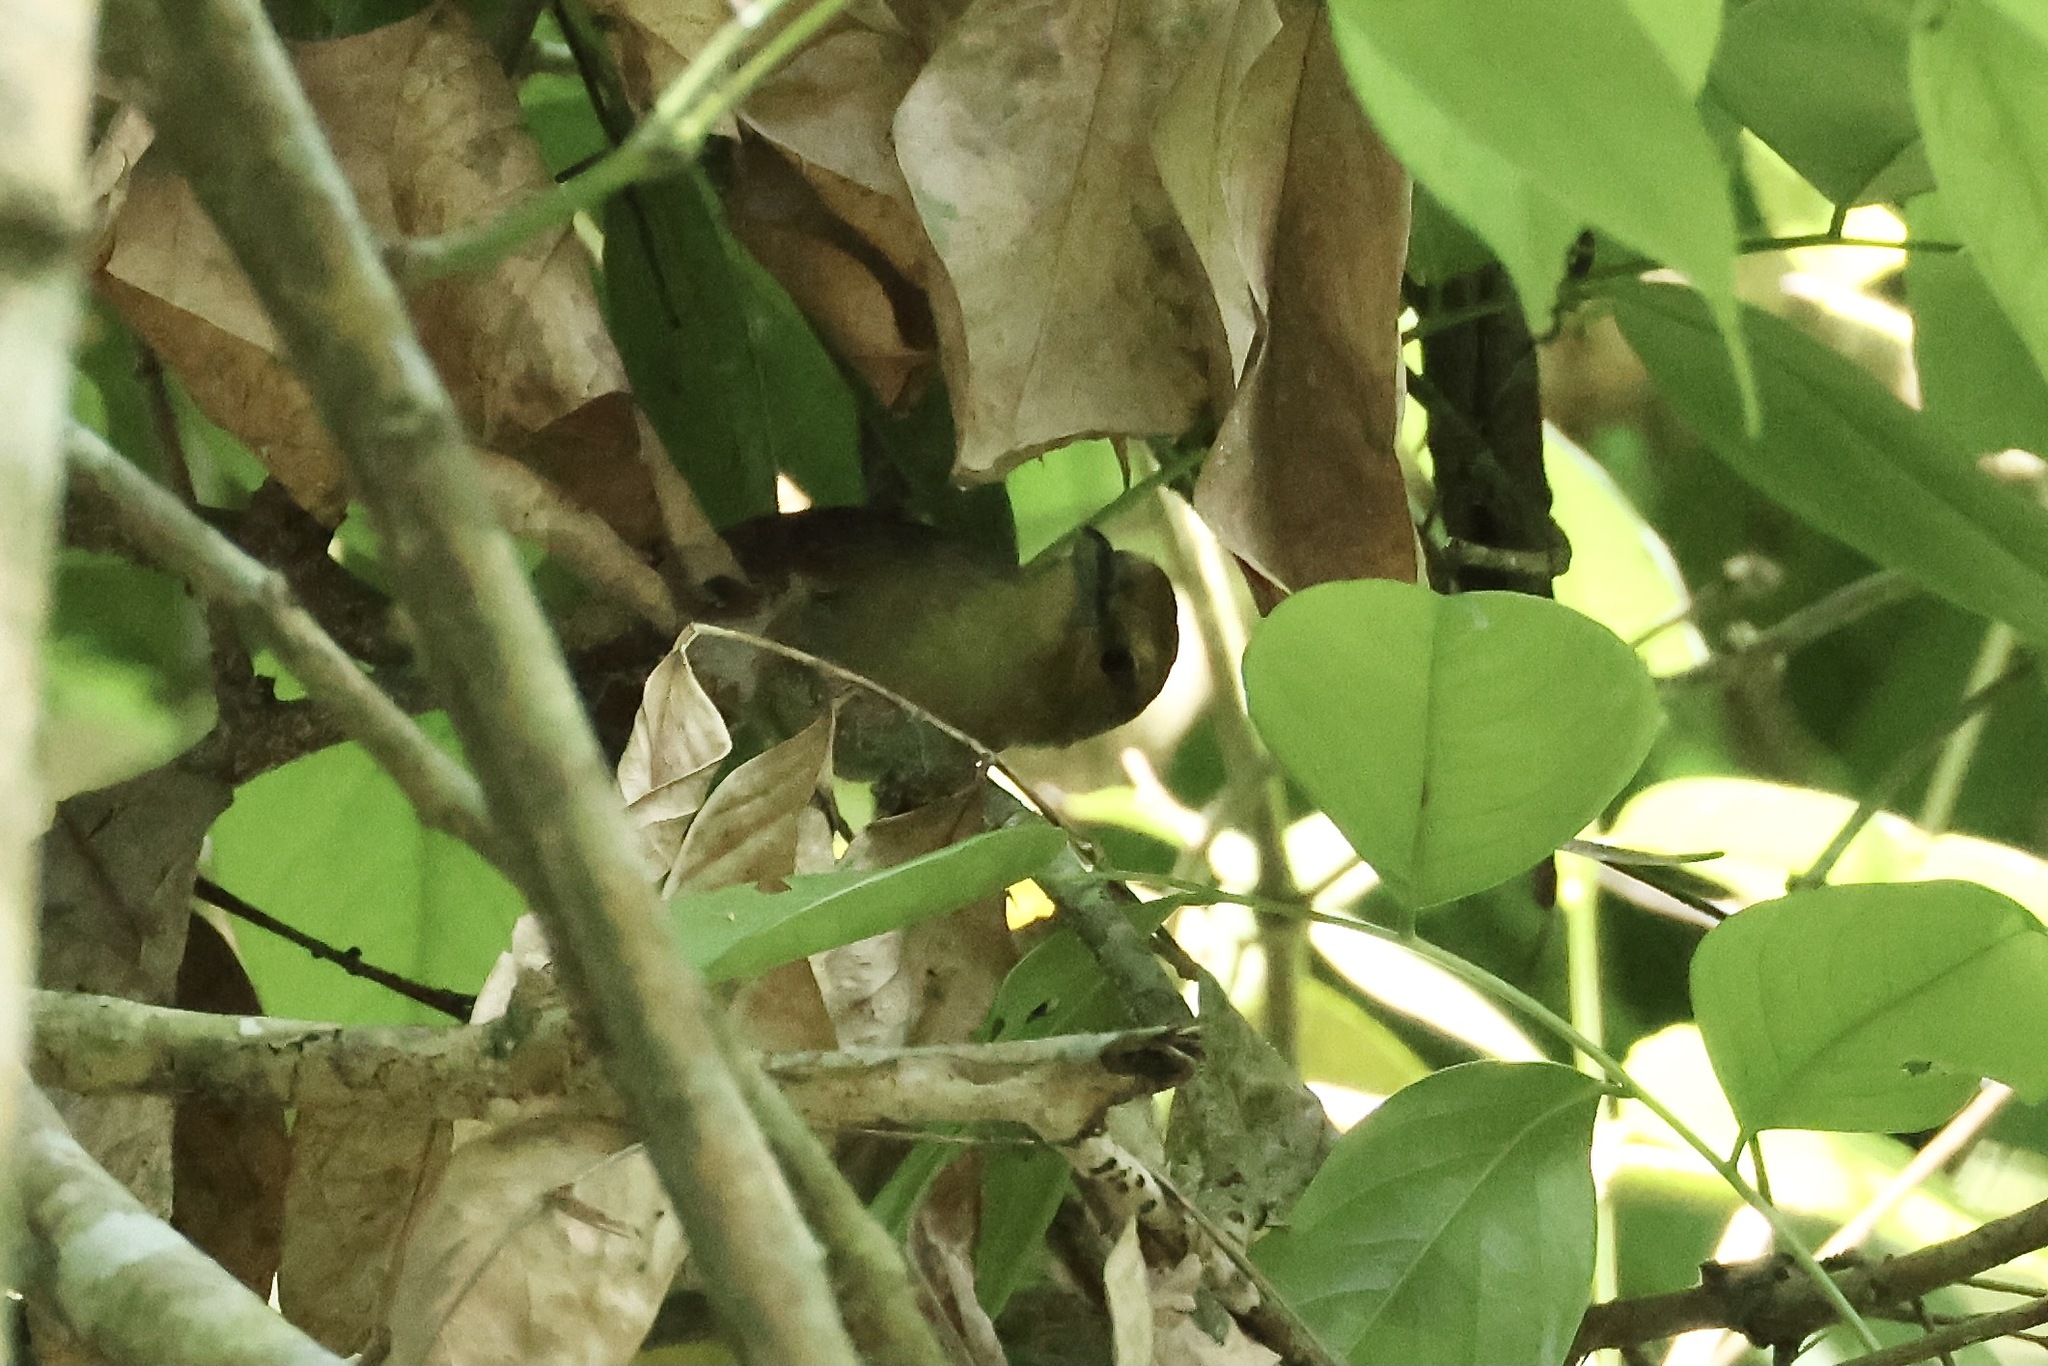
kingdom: Animalia
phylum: Chordata
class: Aves
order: Passeriformes
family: Thamnophilidae
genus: Thamnistes
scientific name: Thamnistes anabatinus
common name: Russet antshrike
